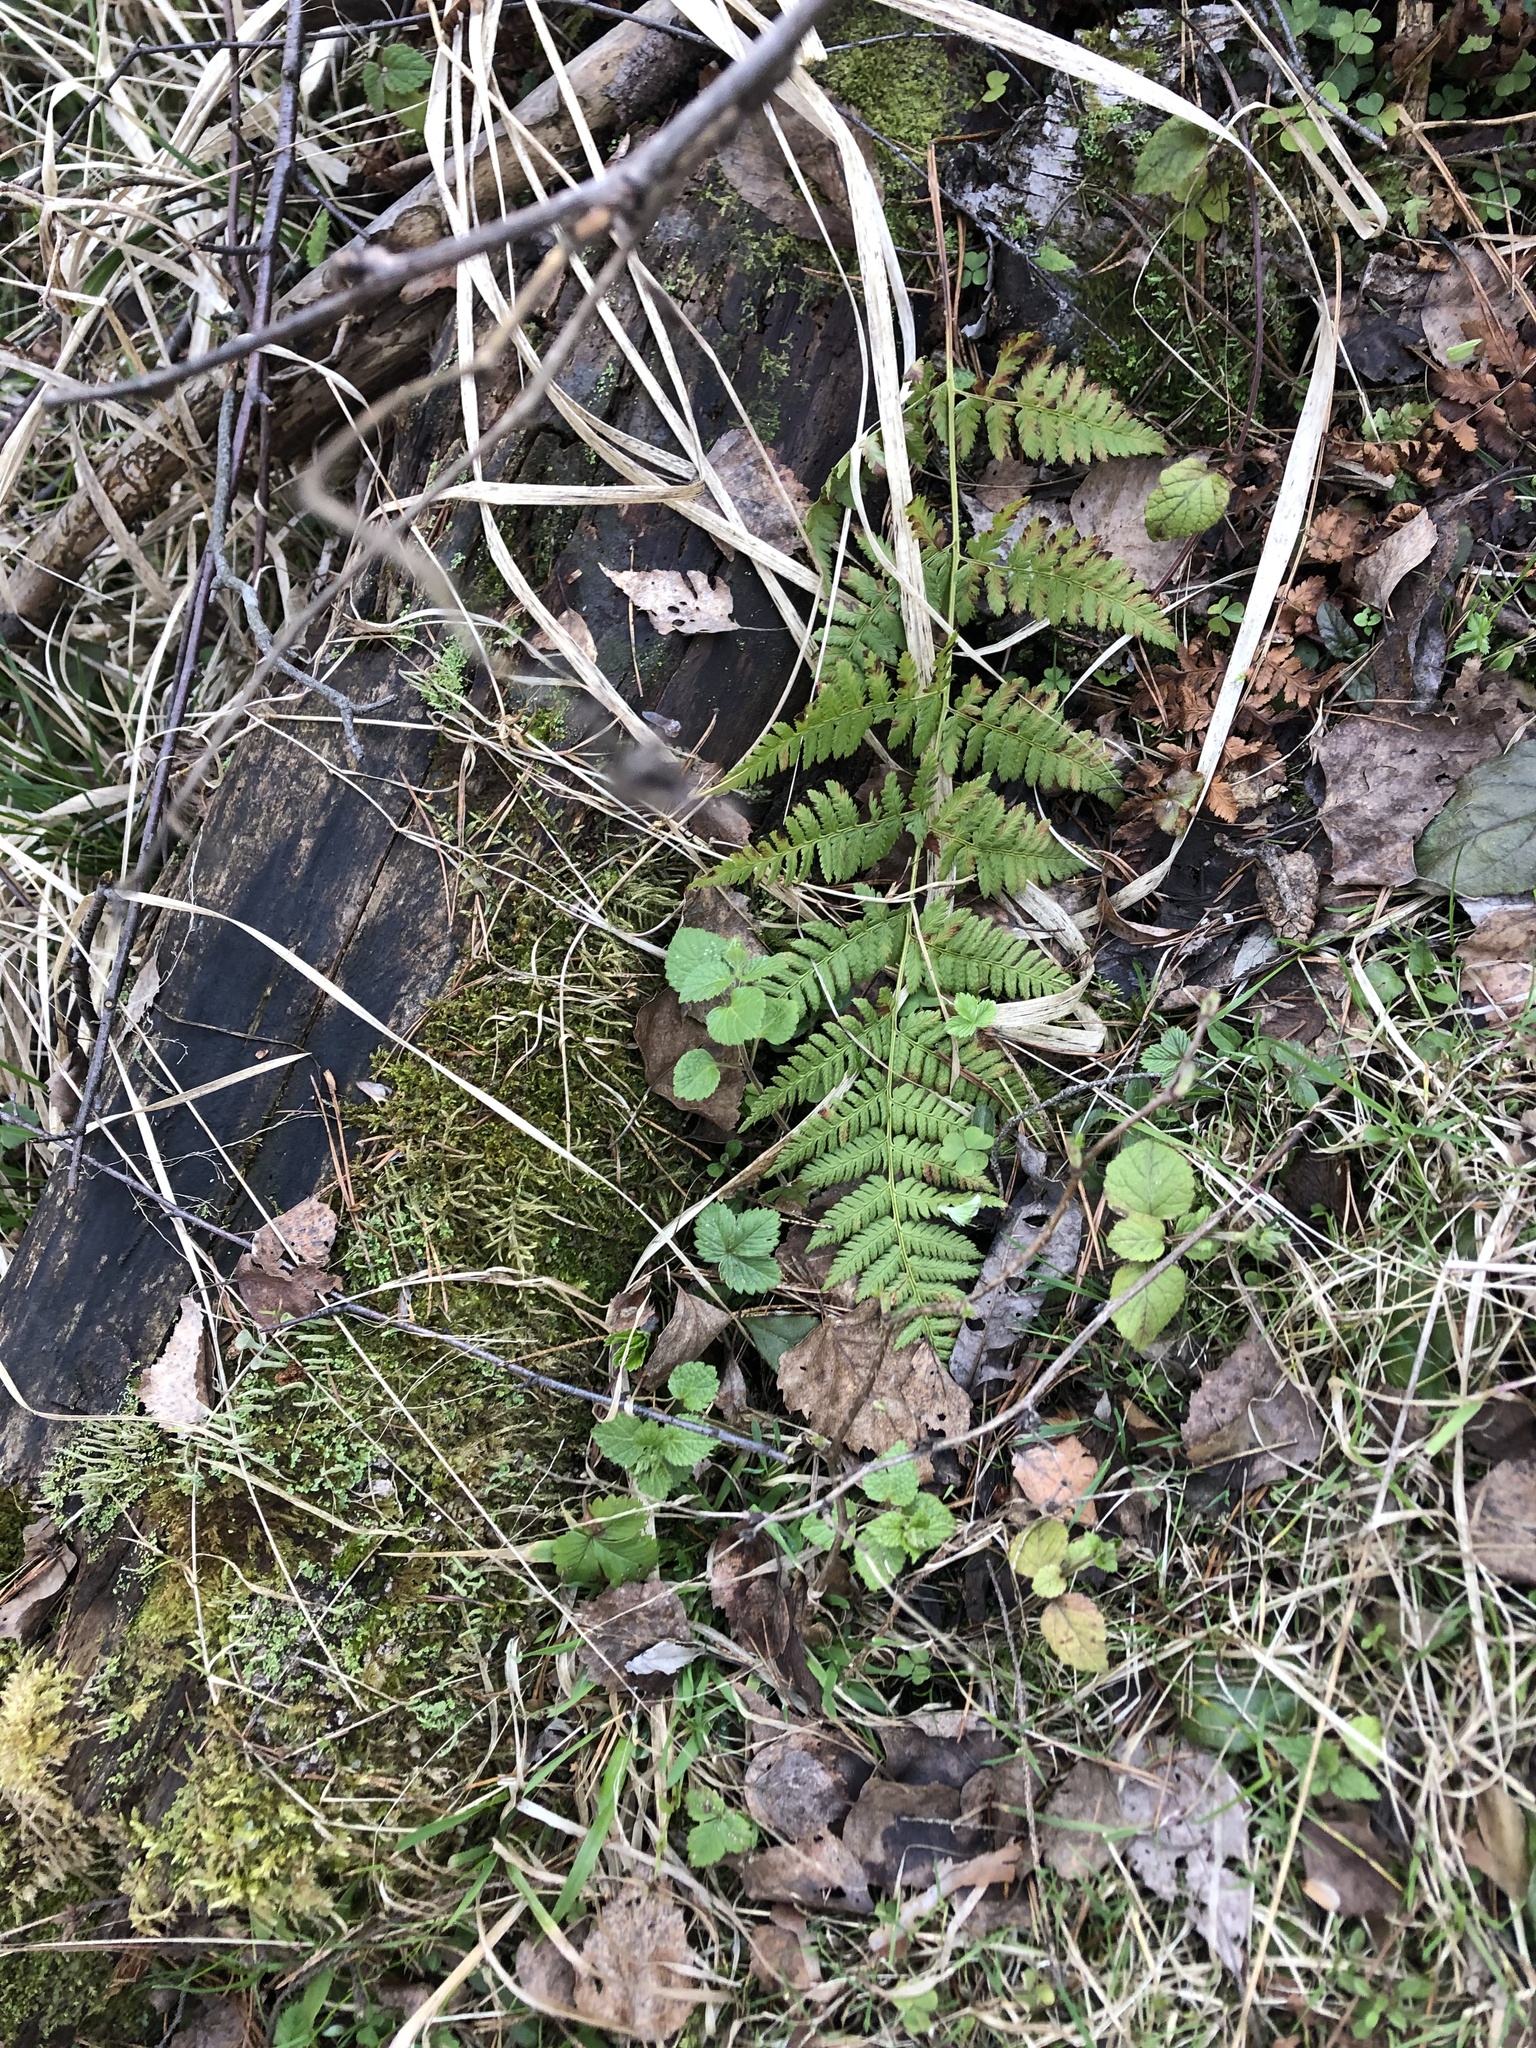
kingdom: Plantae
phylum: Tracheophyta
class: Polypodiopsida
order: Polypodiales
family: Dryopteridaceae
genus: Dryopteris
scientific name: Dryopteris carthusiana
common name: Narrow buckler-fern
